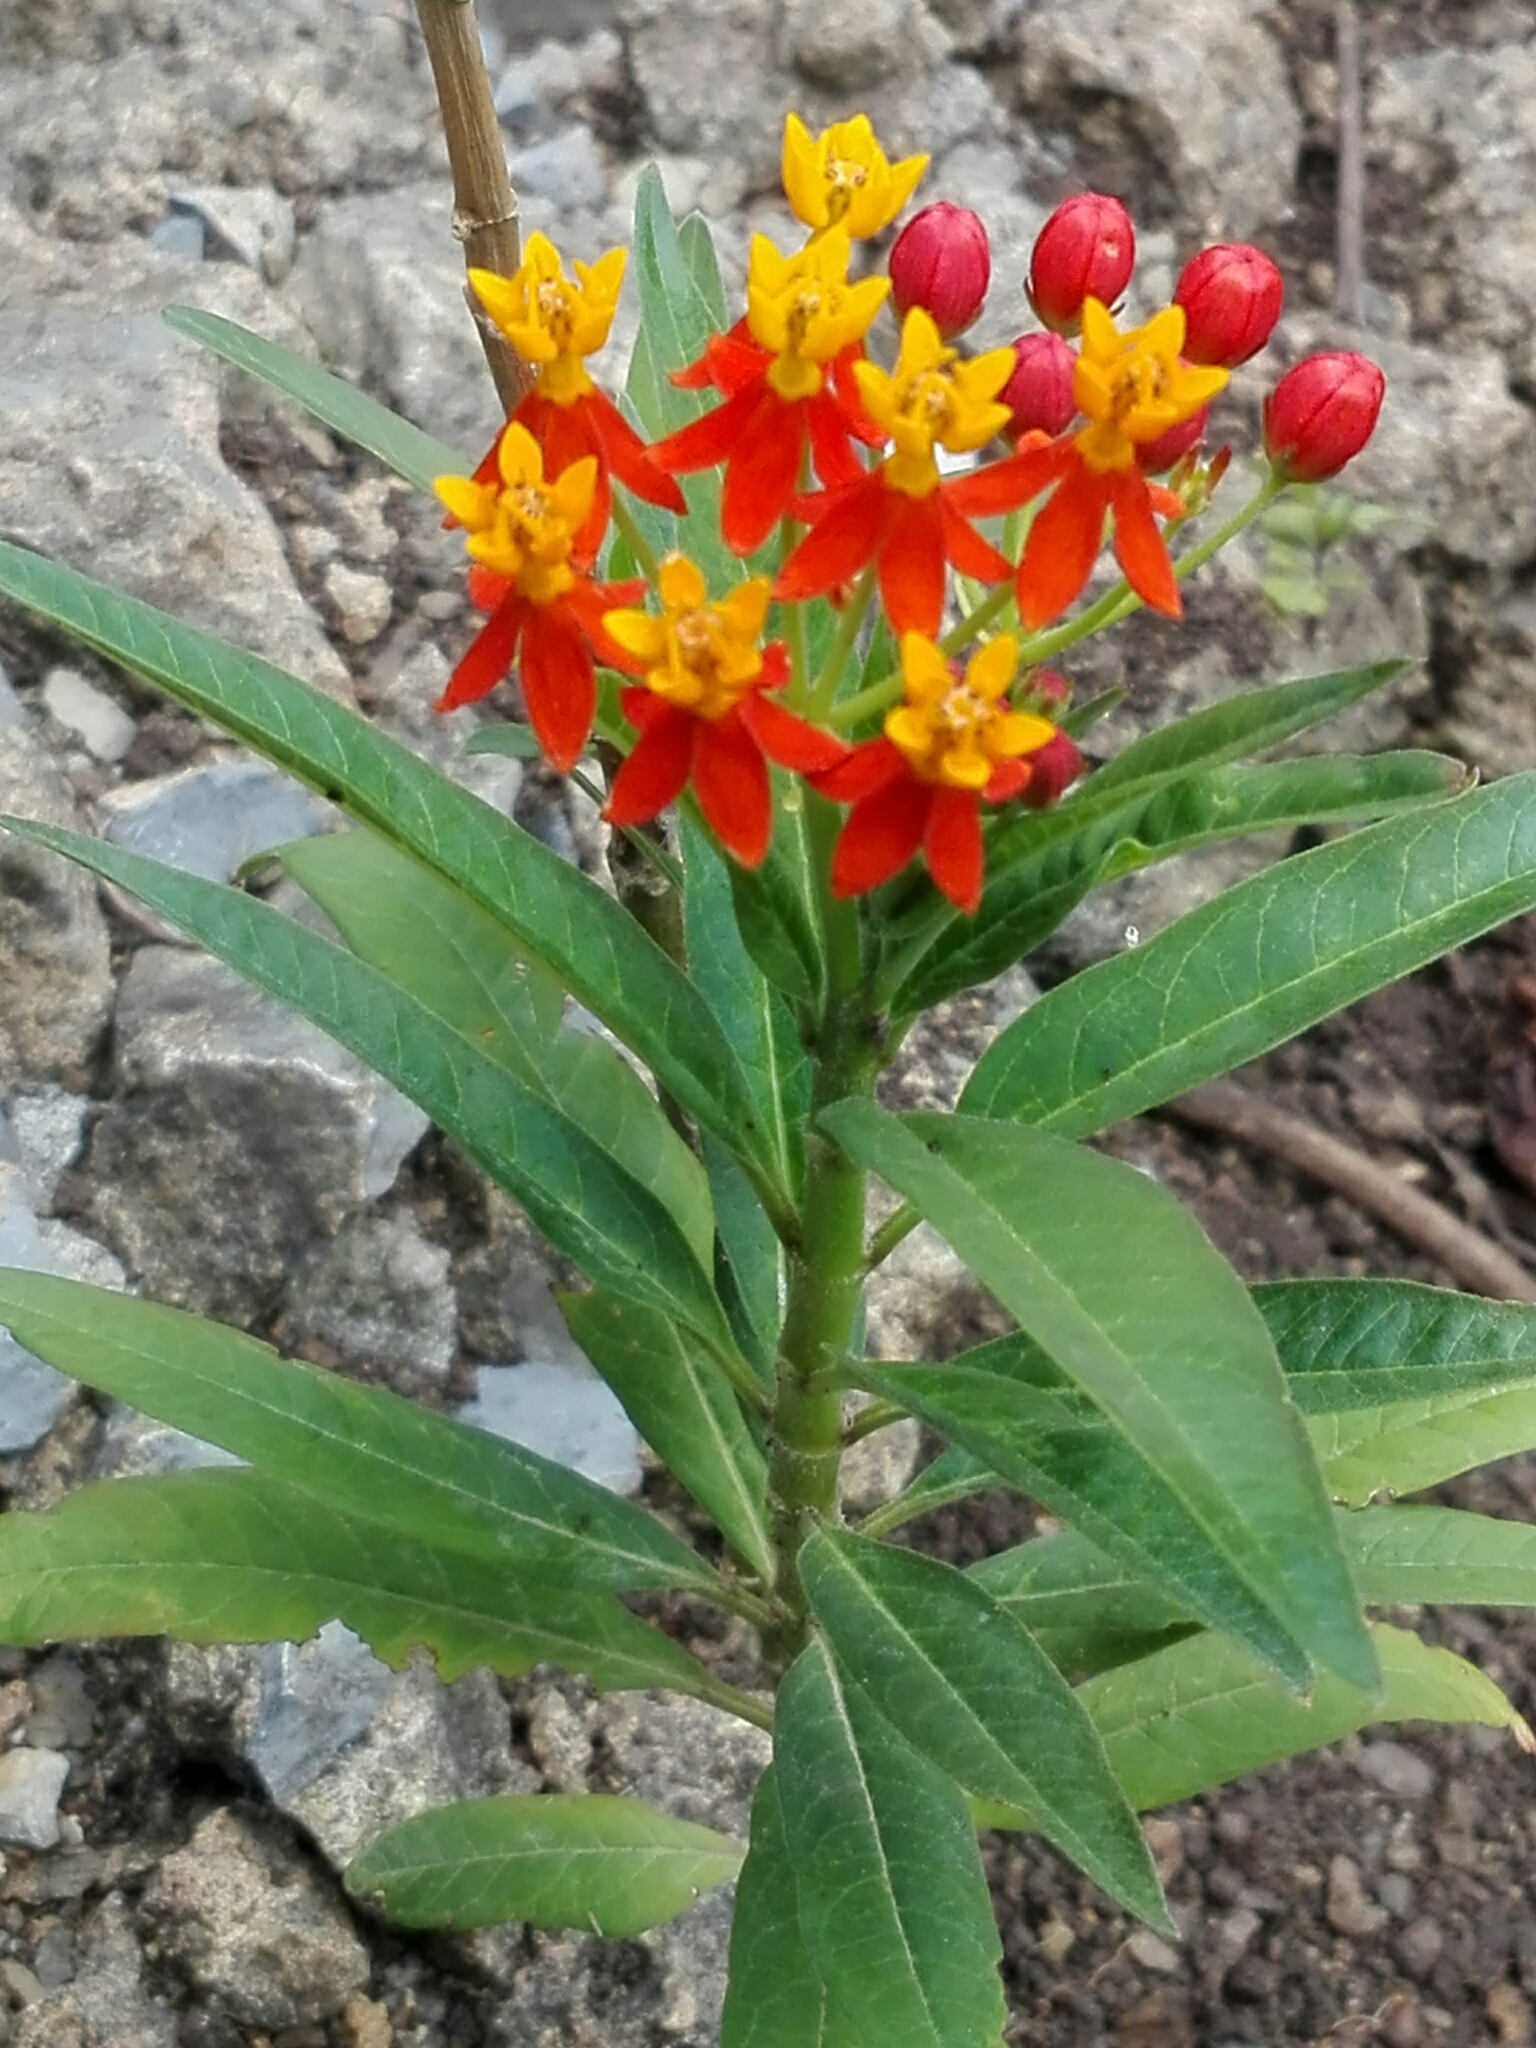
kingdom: Plantae
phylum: Tracheophyta
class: Magnoliopsida
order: Gentianales
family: Apocynaceae
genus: Asclepias
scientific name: Asclepias curassavica
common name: Bloodflower
